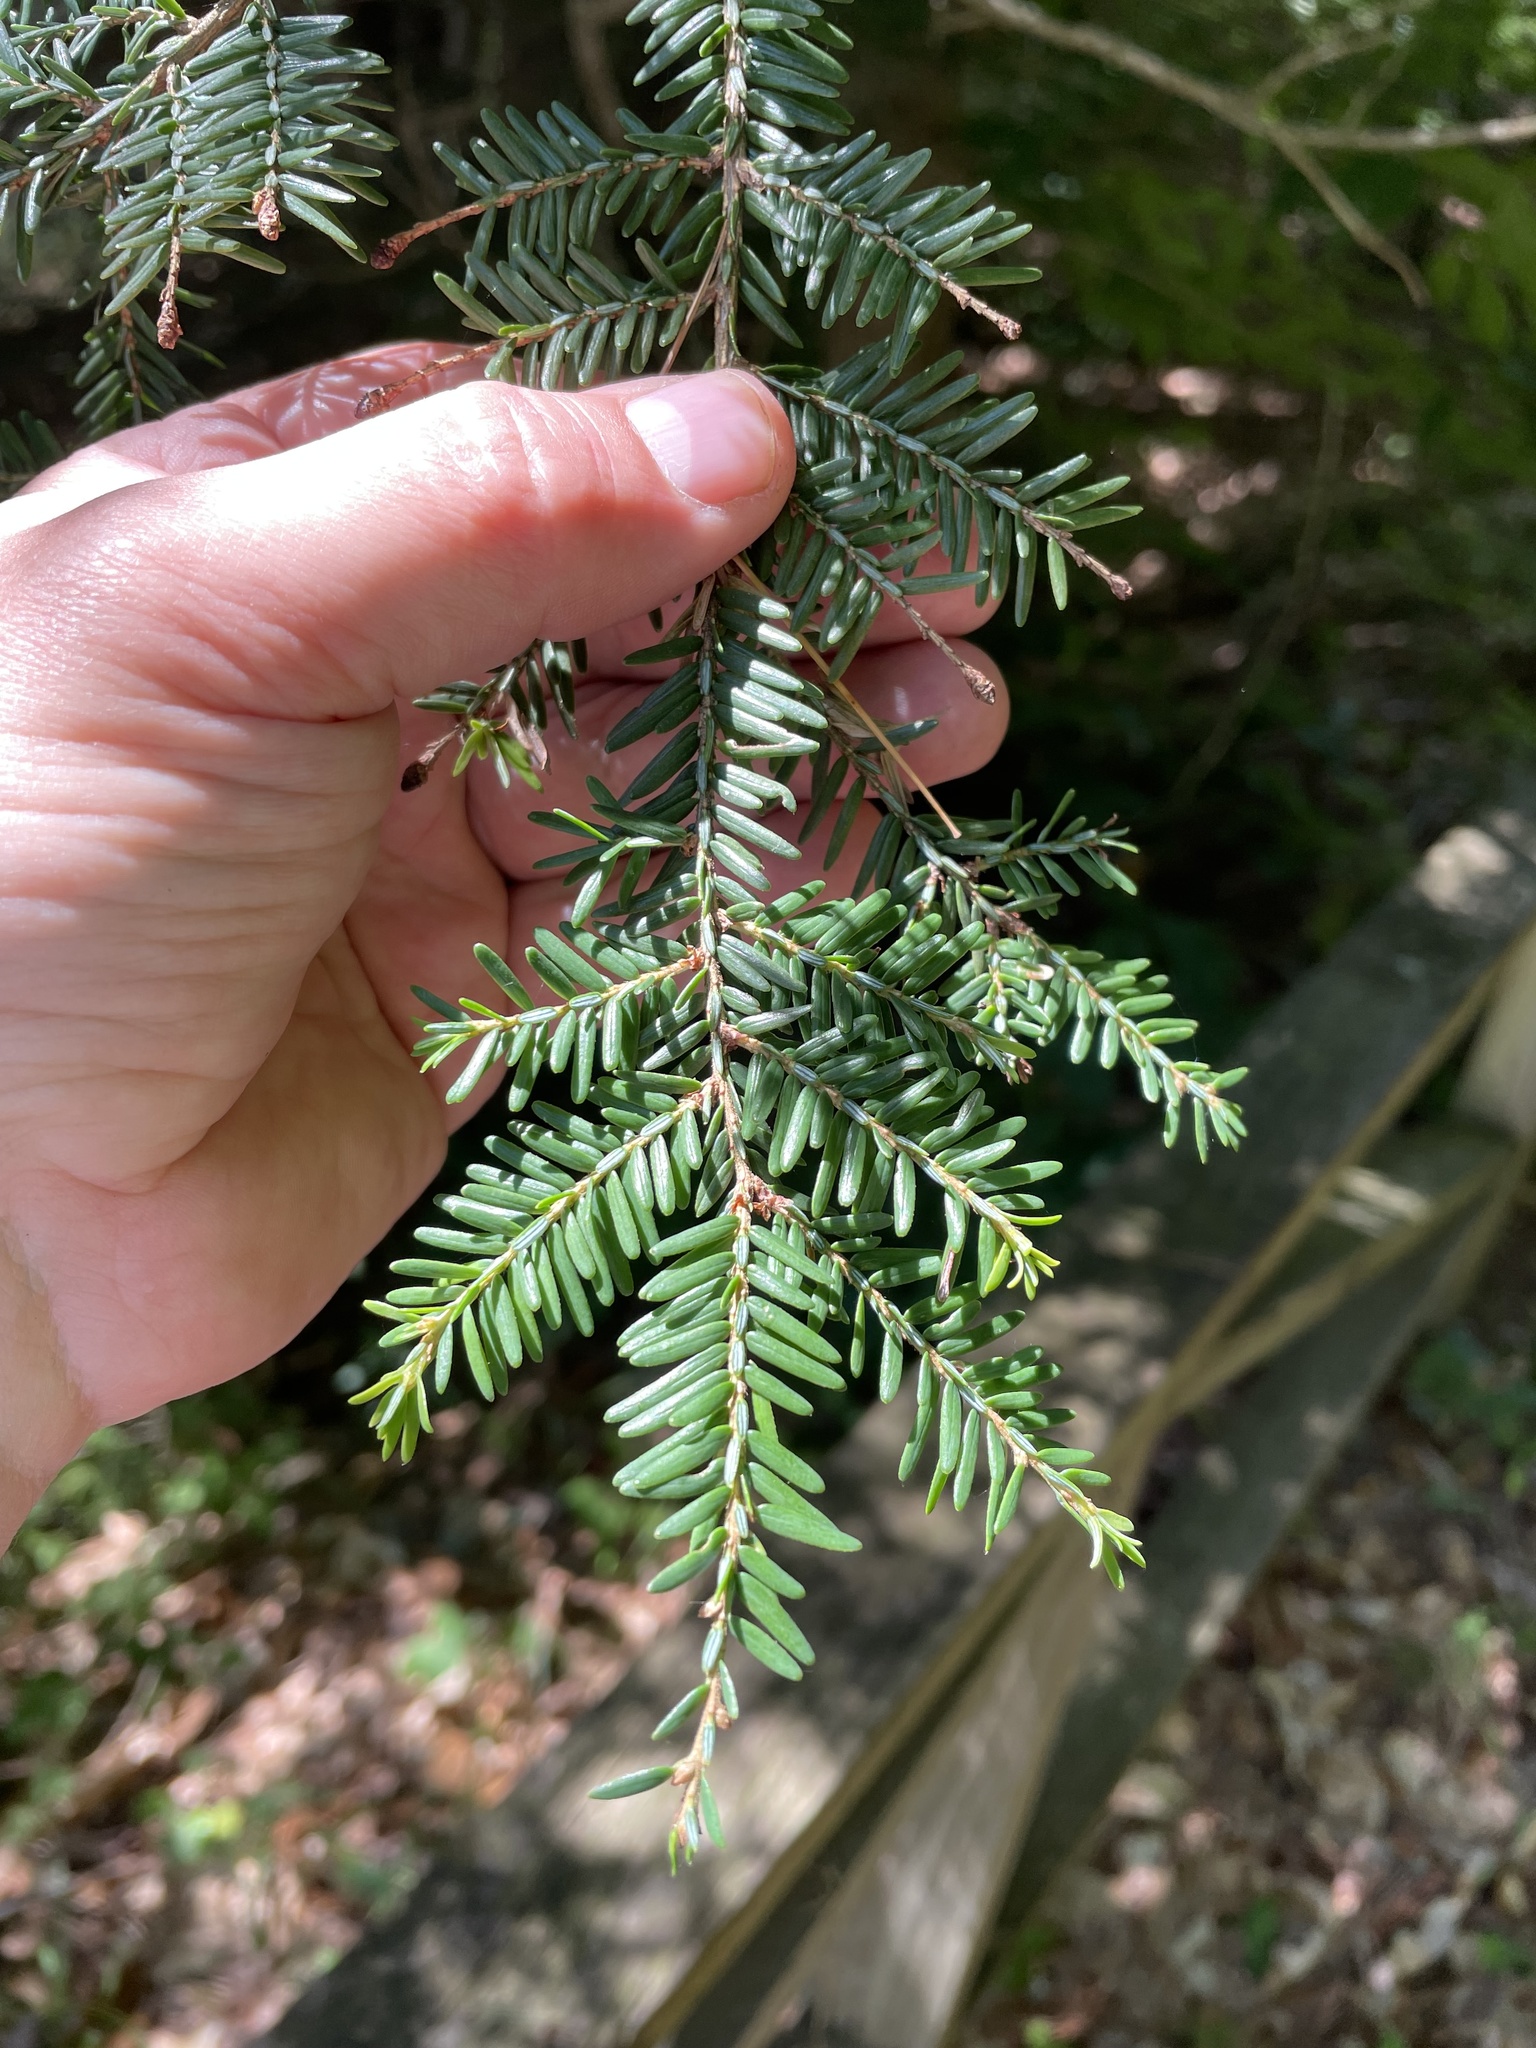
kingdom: Plantae
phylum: Tracheophyta
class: Pinopsida
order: Pinales
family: Pinaceae
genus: Tsuga
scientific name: Tsuga canadensis
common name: Eastern hemlock
